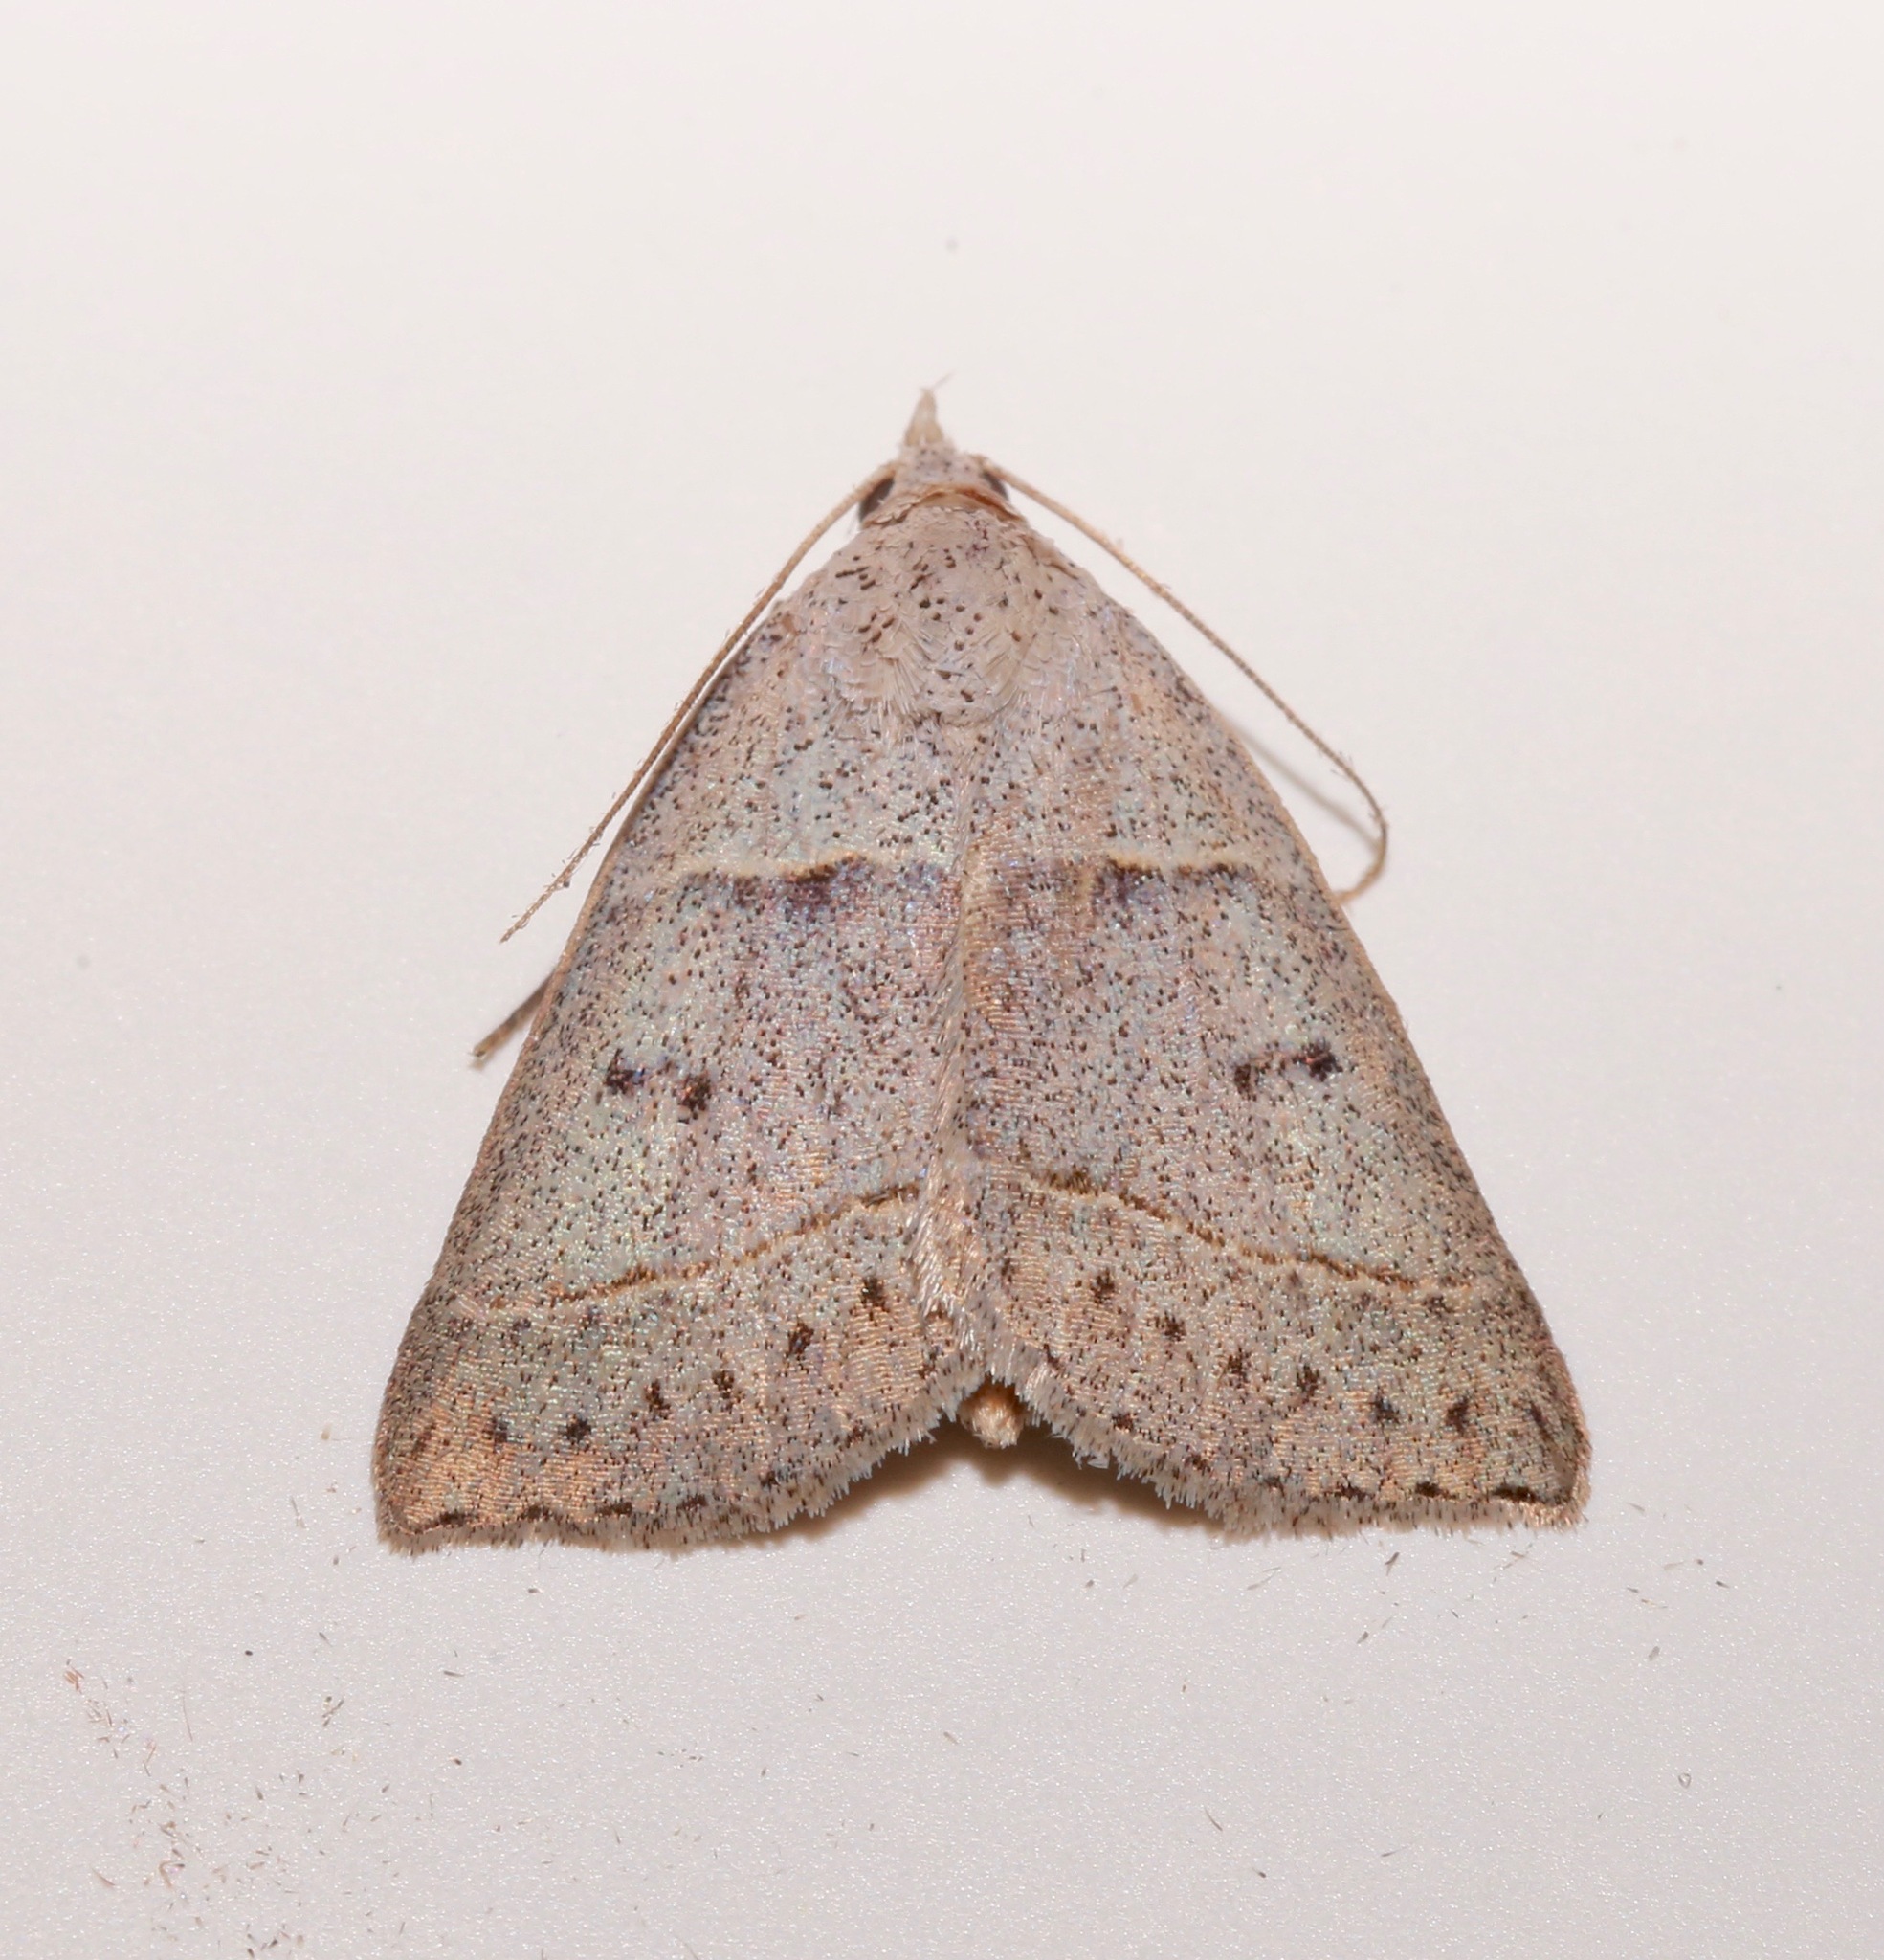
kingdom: Animalia
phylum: Arthropoda
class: Insecta
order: Lepidoptera
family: Erebidae
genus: Ptichodis
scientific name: Ptichodis pacalis
